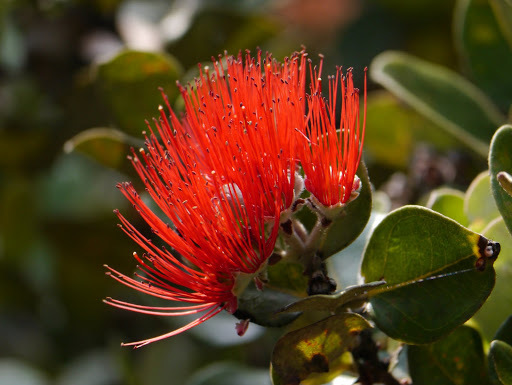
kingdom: Plantae
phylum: Tracheophyta
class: Magnoliopsida
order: Myrtales
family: Myrtaceae
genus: Metrosideros
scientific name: Metrosideros polymorpha
